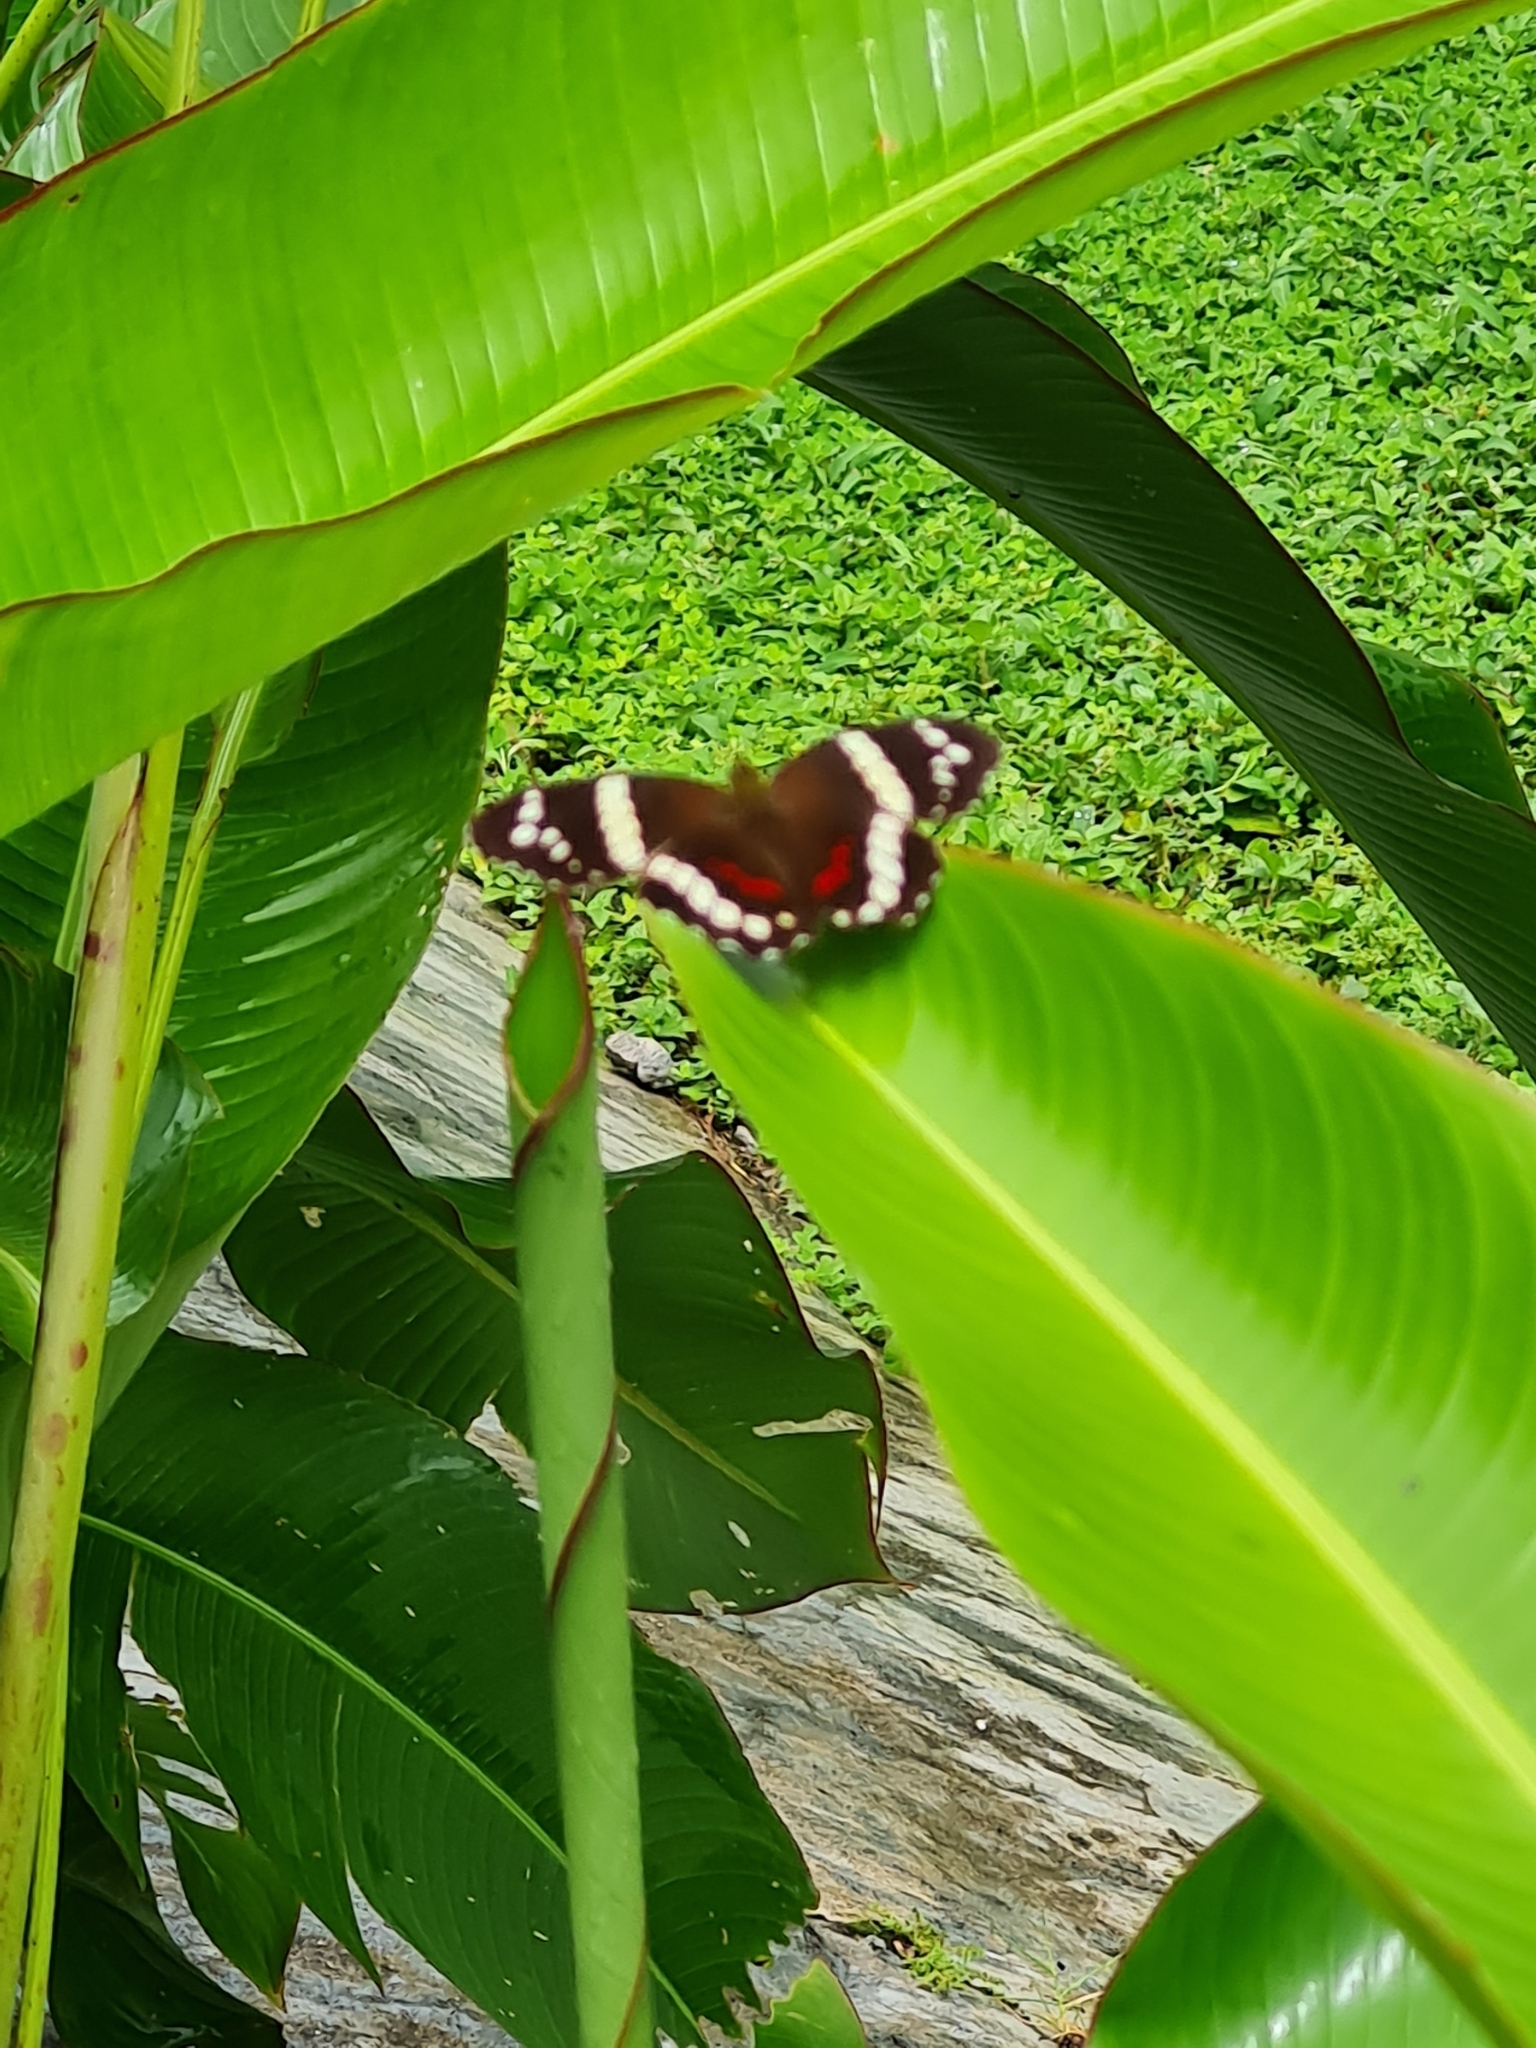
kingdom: Animalia
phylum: Arthropoda
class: Insecta
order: Lepidoptera
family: Nymphalidae
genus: Anartia
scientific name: Anartia fatima
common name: Banded peacock
